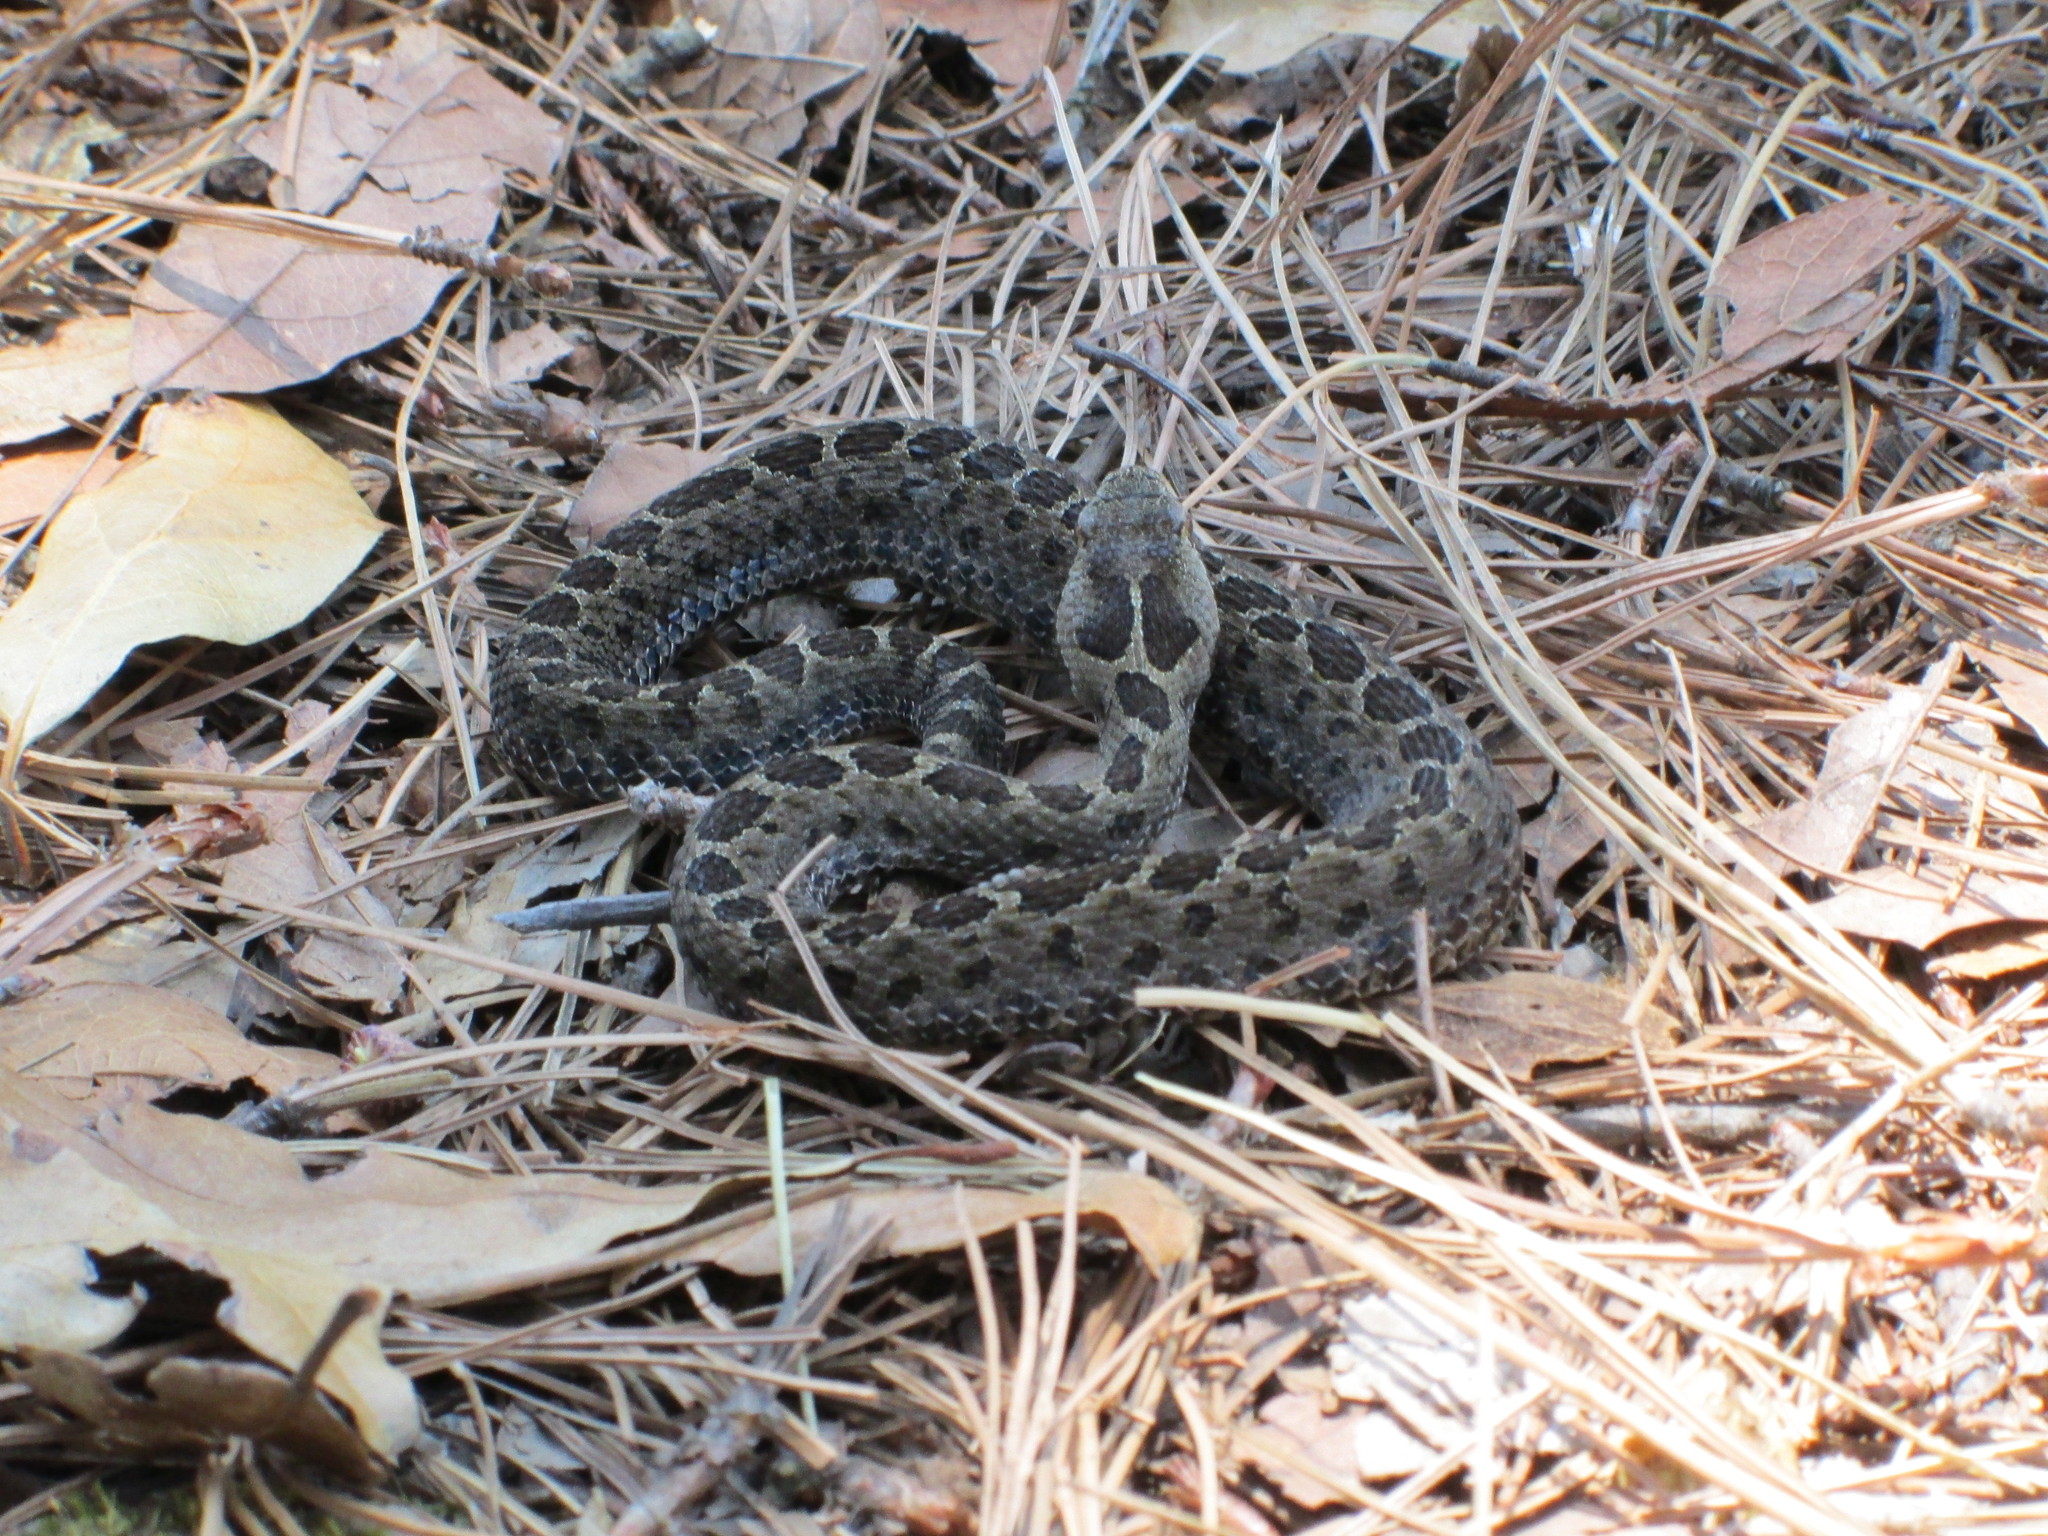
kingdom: Animalia
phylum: Chordata
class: Squamata
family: Viperidae
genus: Crotalus
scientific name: Crotalus triseriatus
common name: Central plateau dusky rattlesnake
